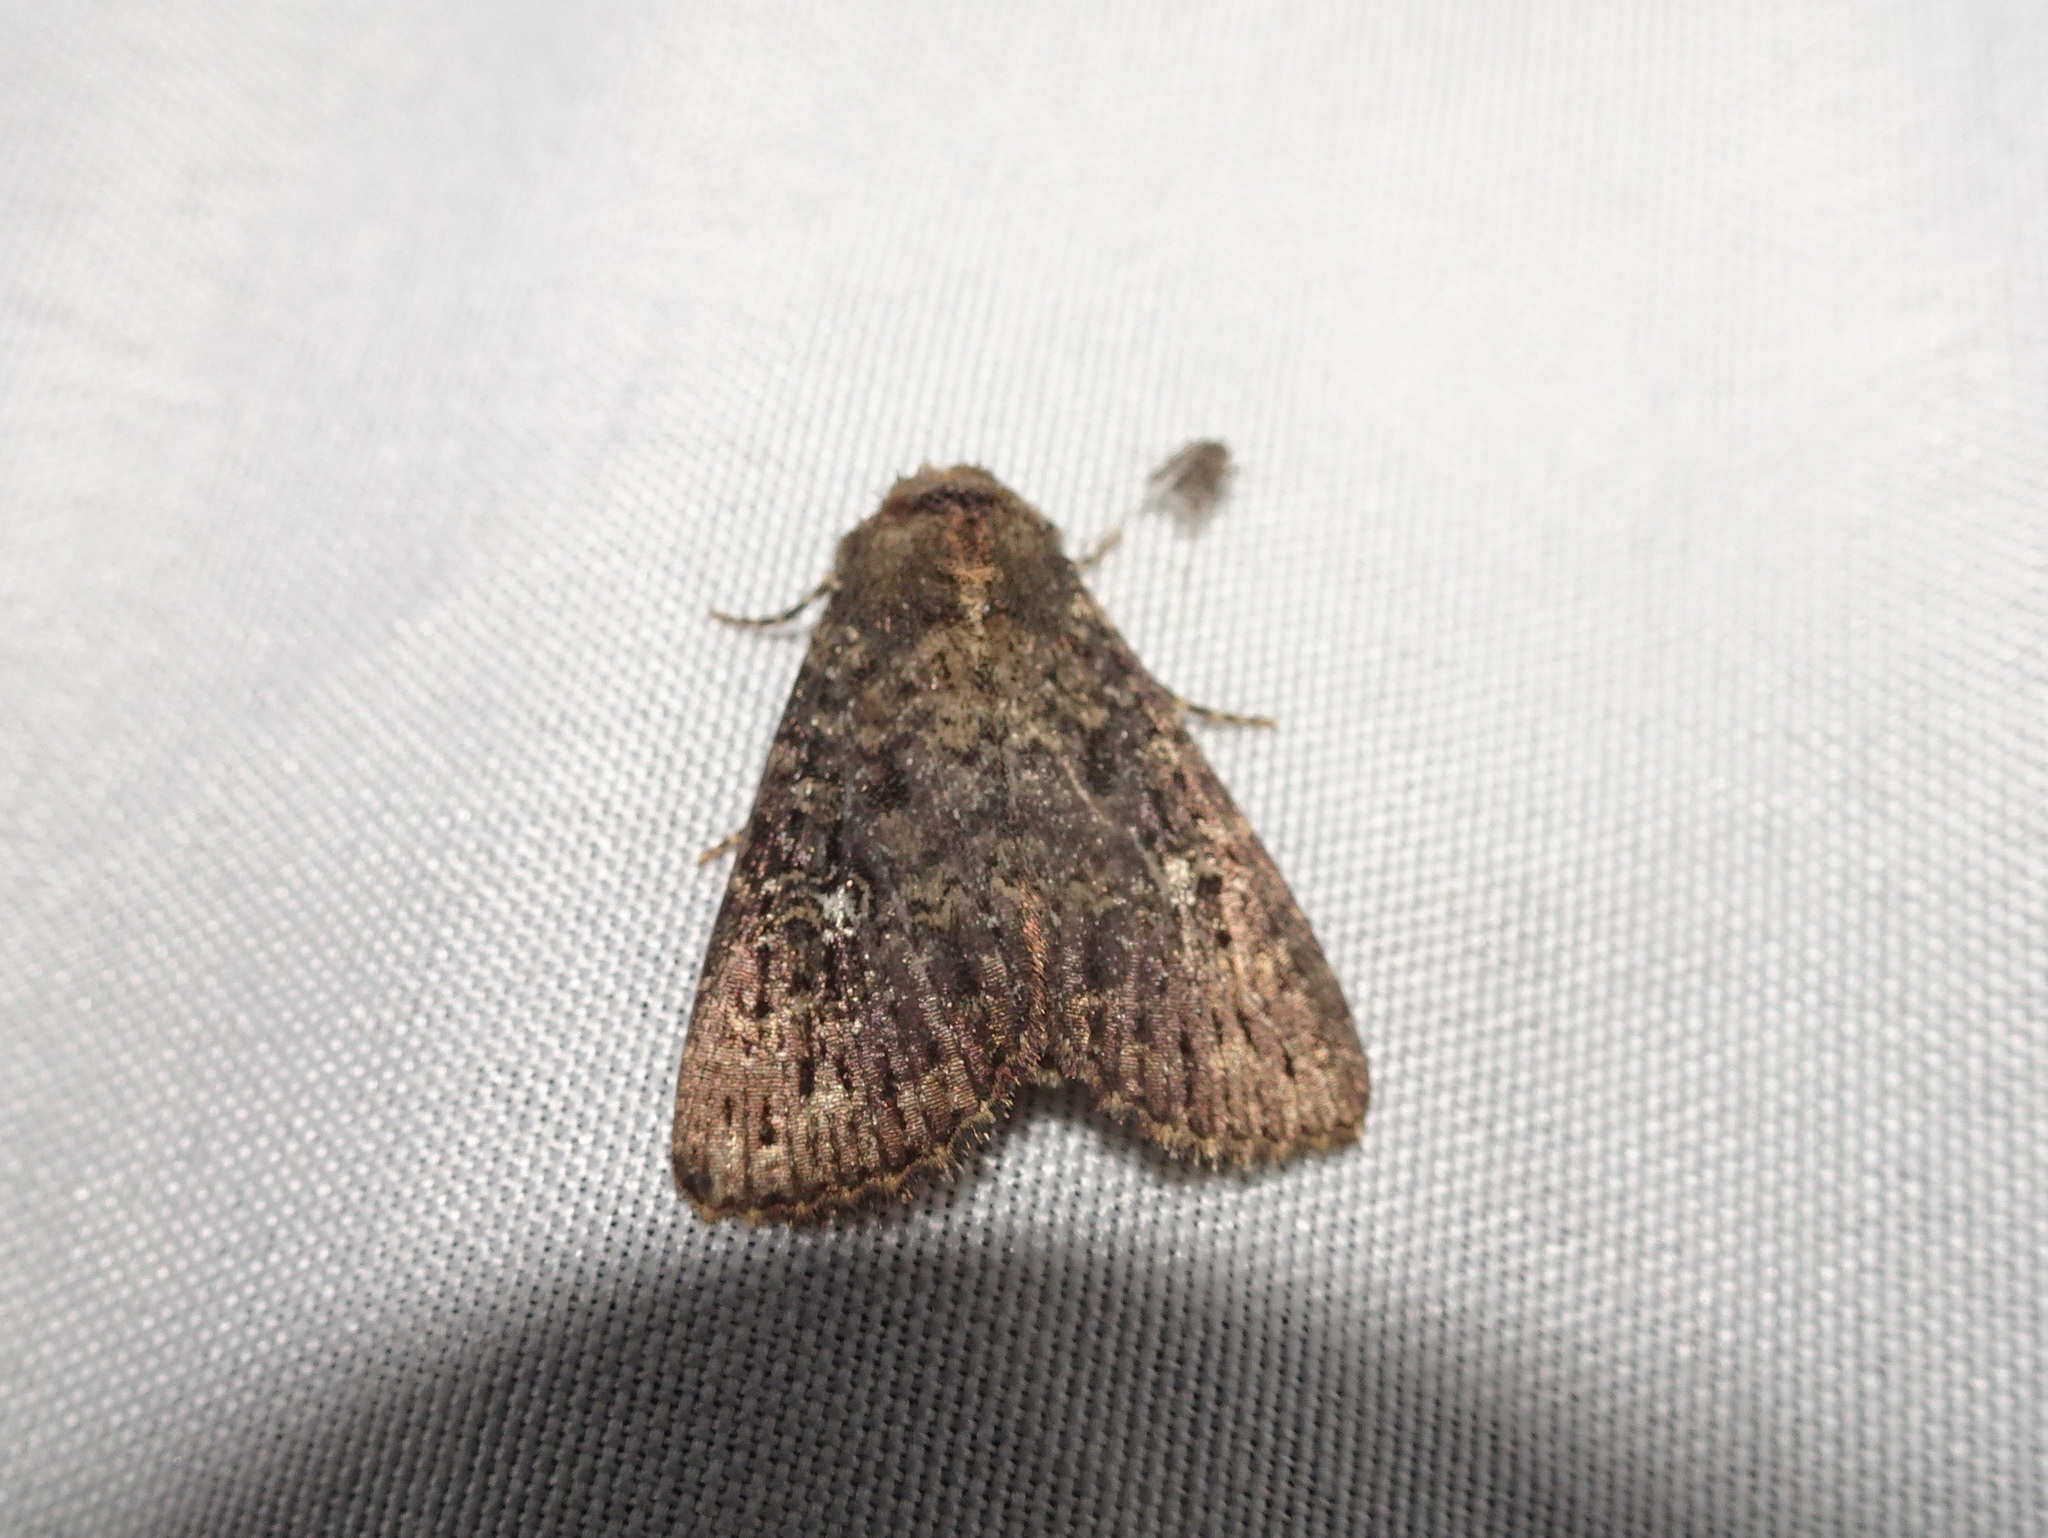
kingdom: Animalia
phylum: Arthropoda
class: Insecta
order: Lepidoptera
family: Noctuidae
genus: Condica
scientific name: Condica vecors
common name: Dusky groundling
